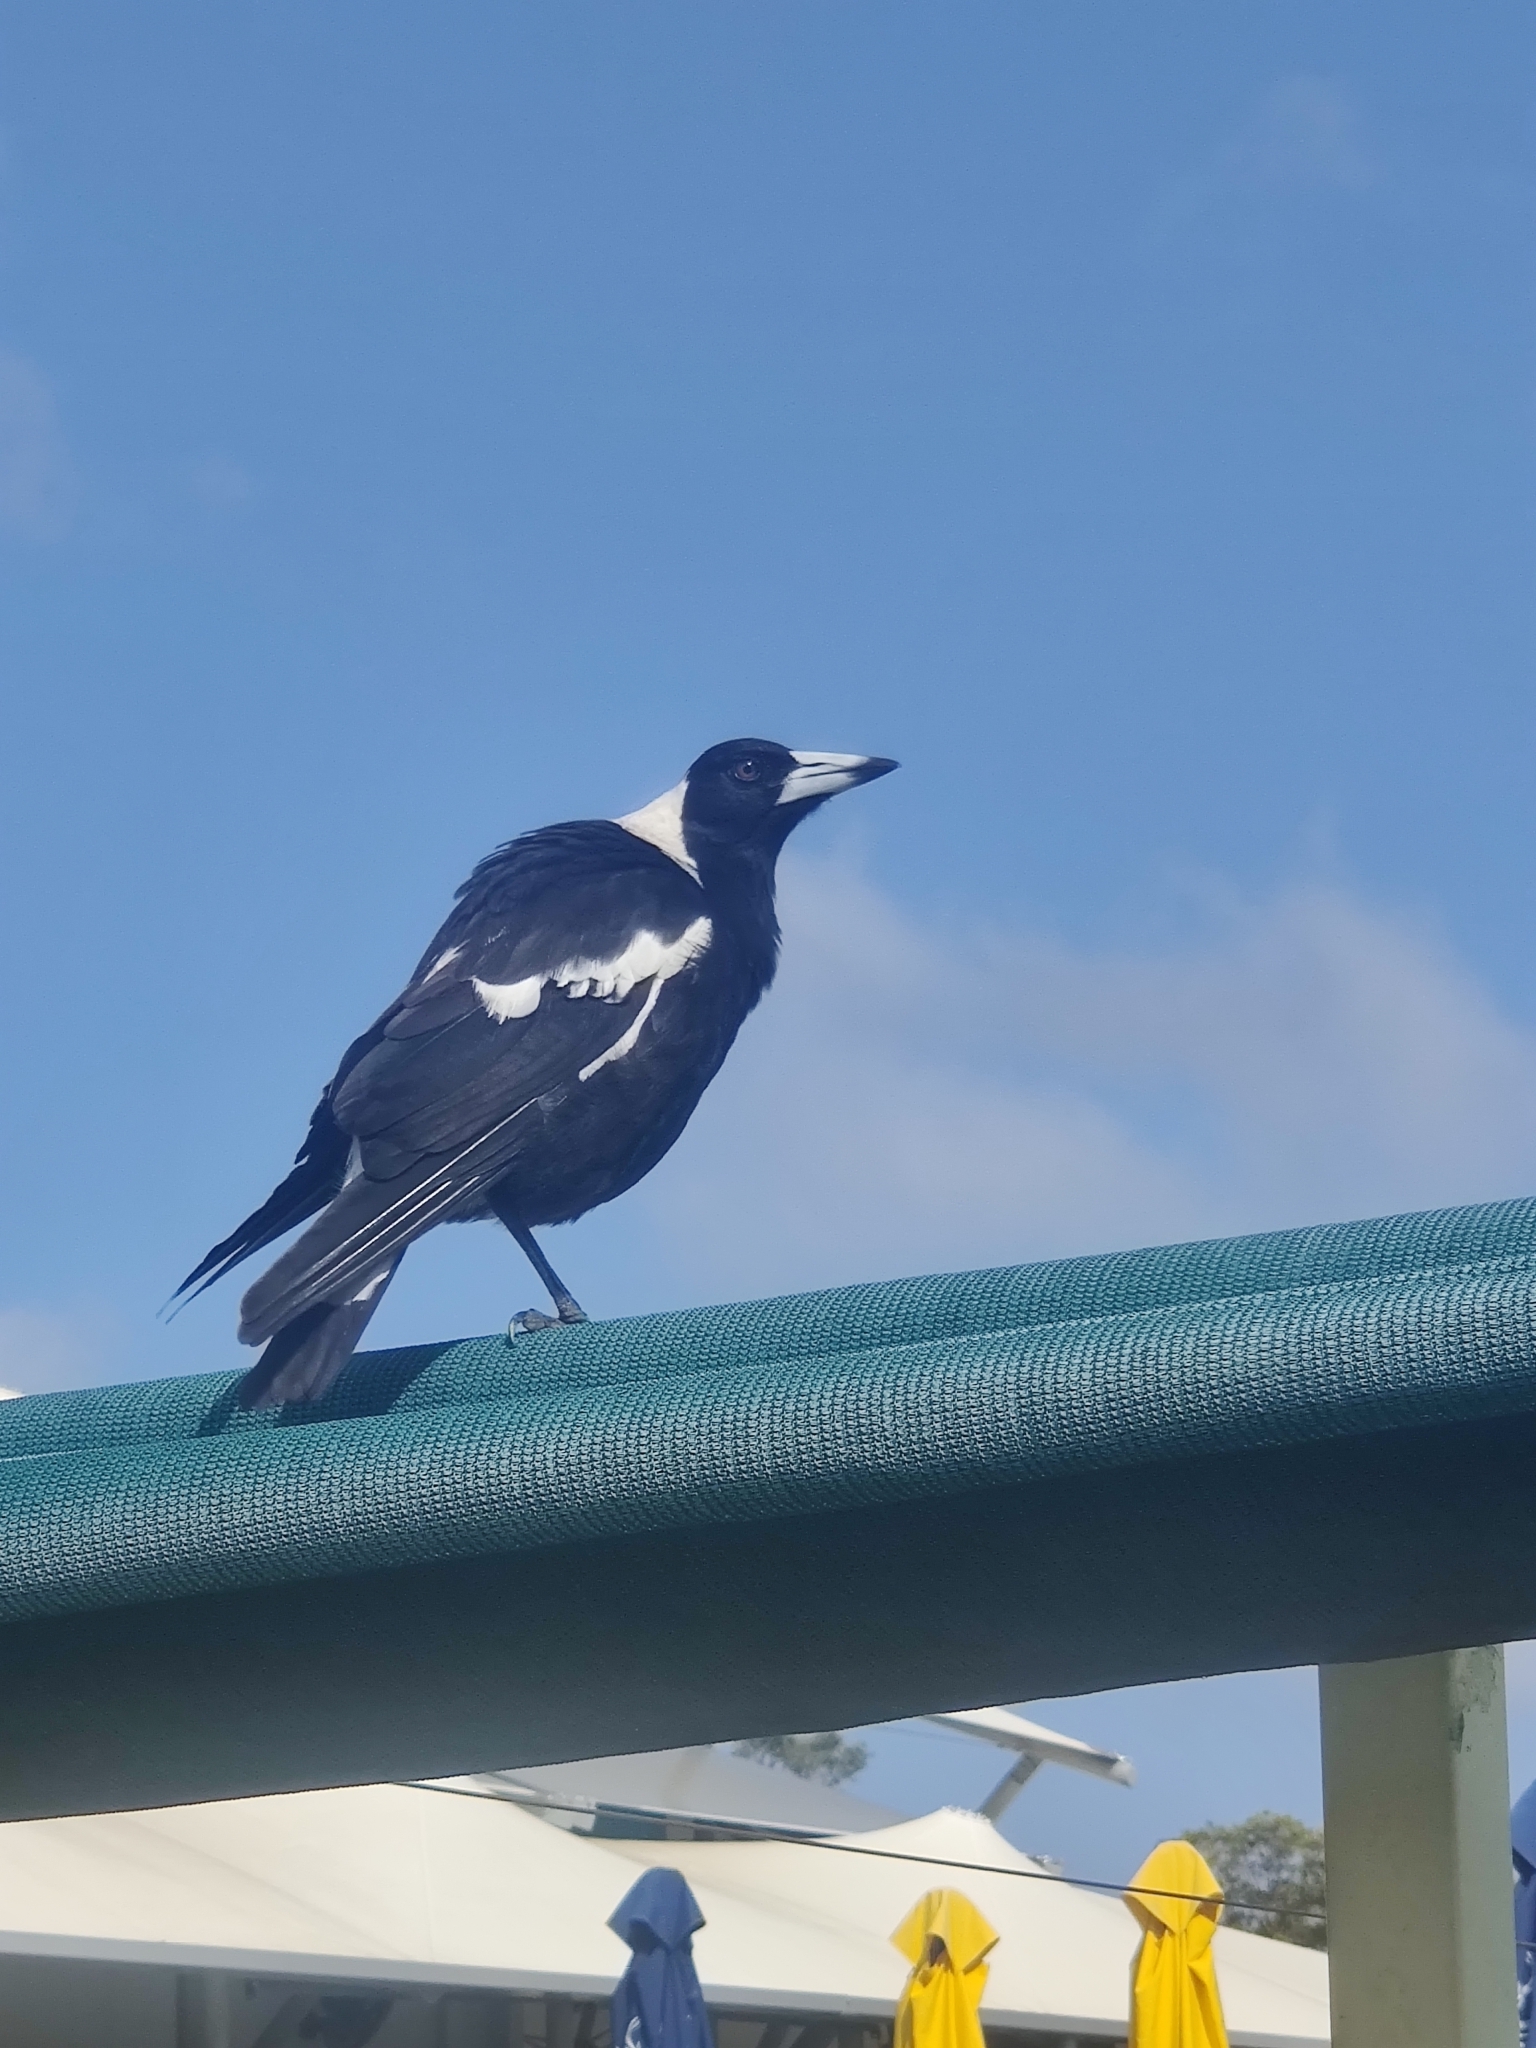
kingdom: Animalia
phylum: Chordata
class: Aves
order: Passeriformes
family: Cracticidae
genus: Gymnorhina
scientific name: Gymnorhina tibicen
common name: Australian magpie
